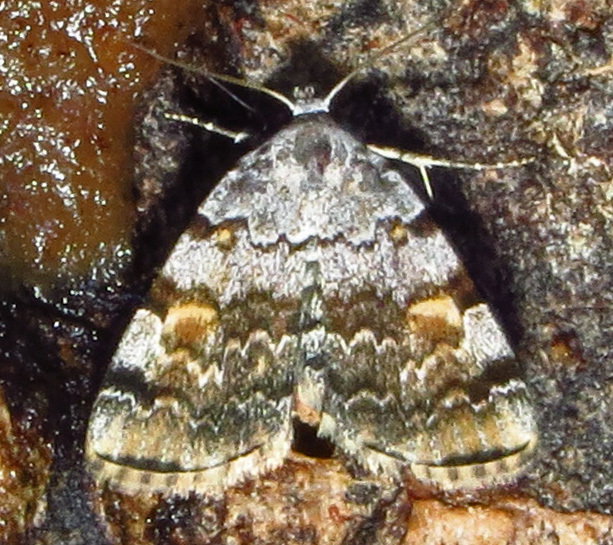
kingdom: Animalia
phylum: Arthropoda
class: Insecta
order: Lepidoptera
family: Erebidae
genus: Idia
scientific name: Idia americalis
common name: American idia moth
